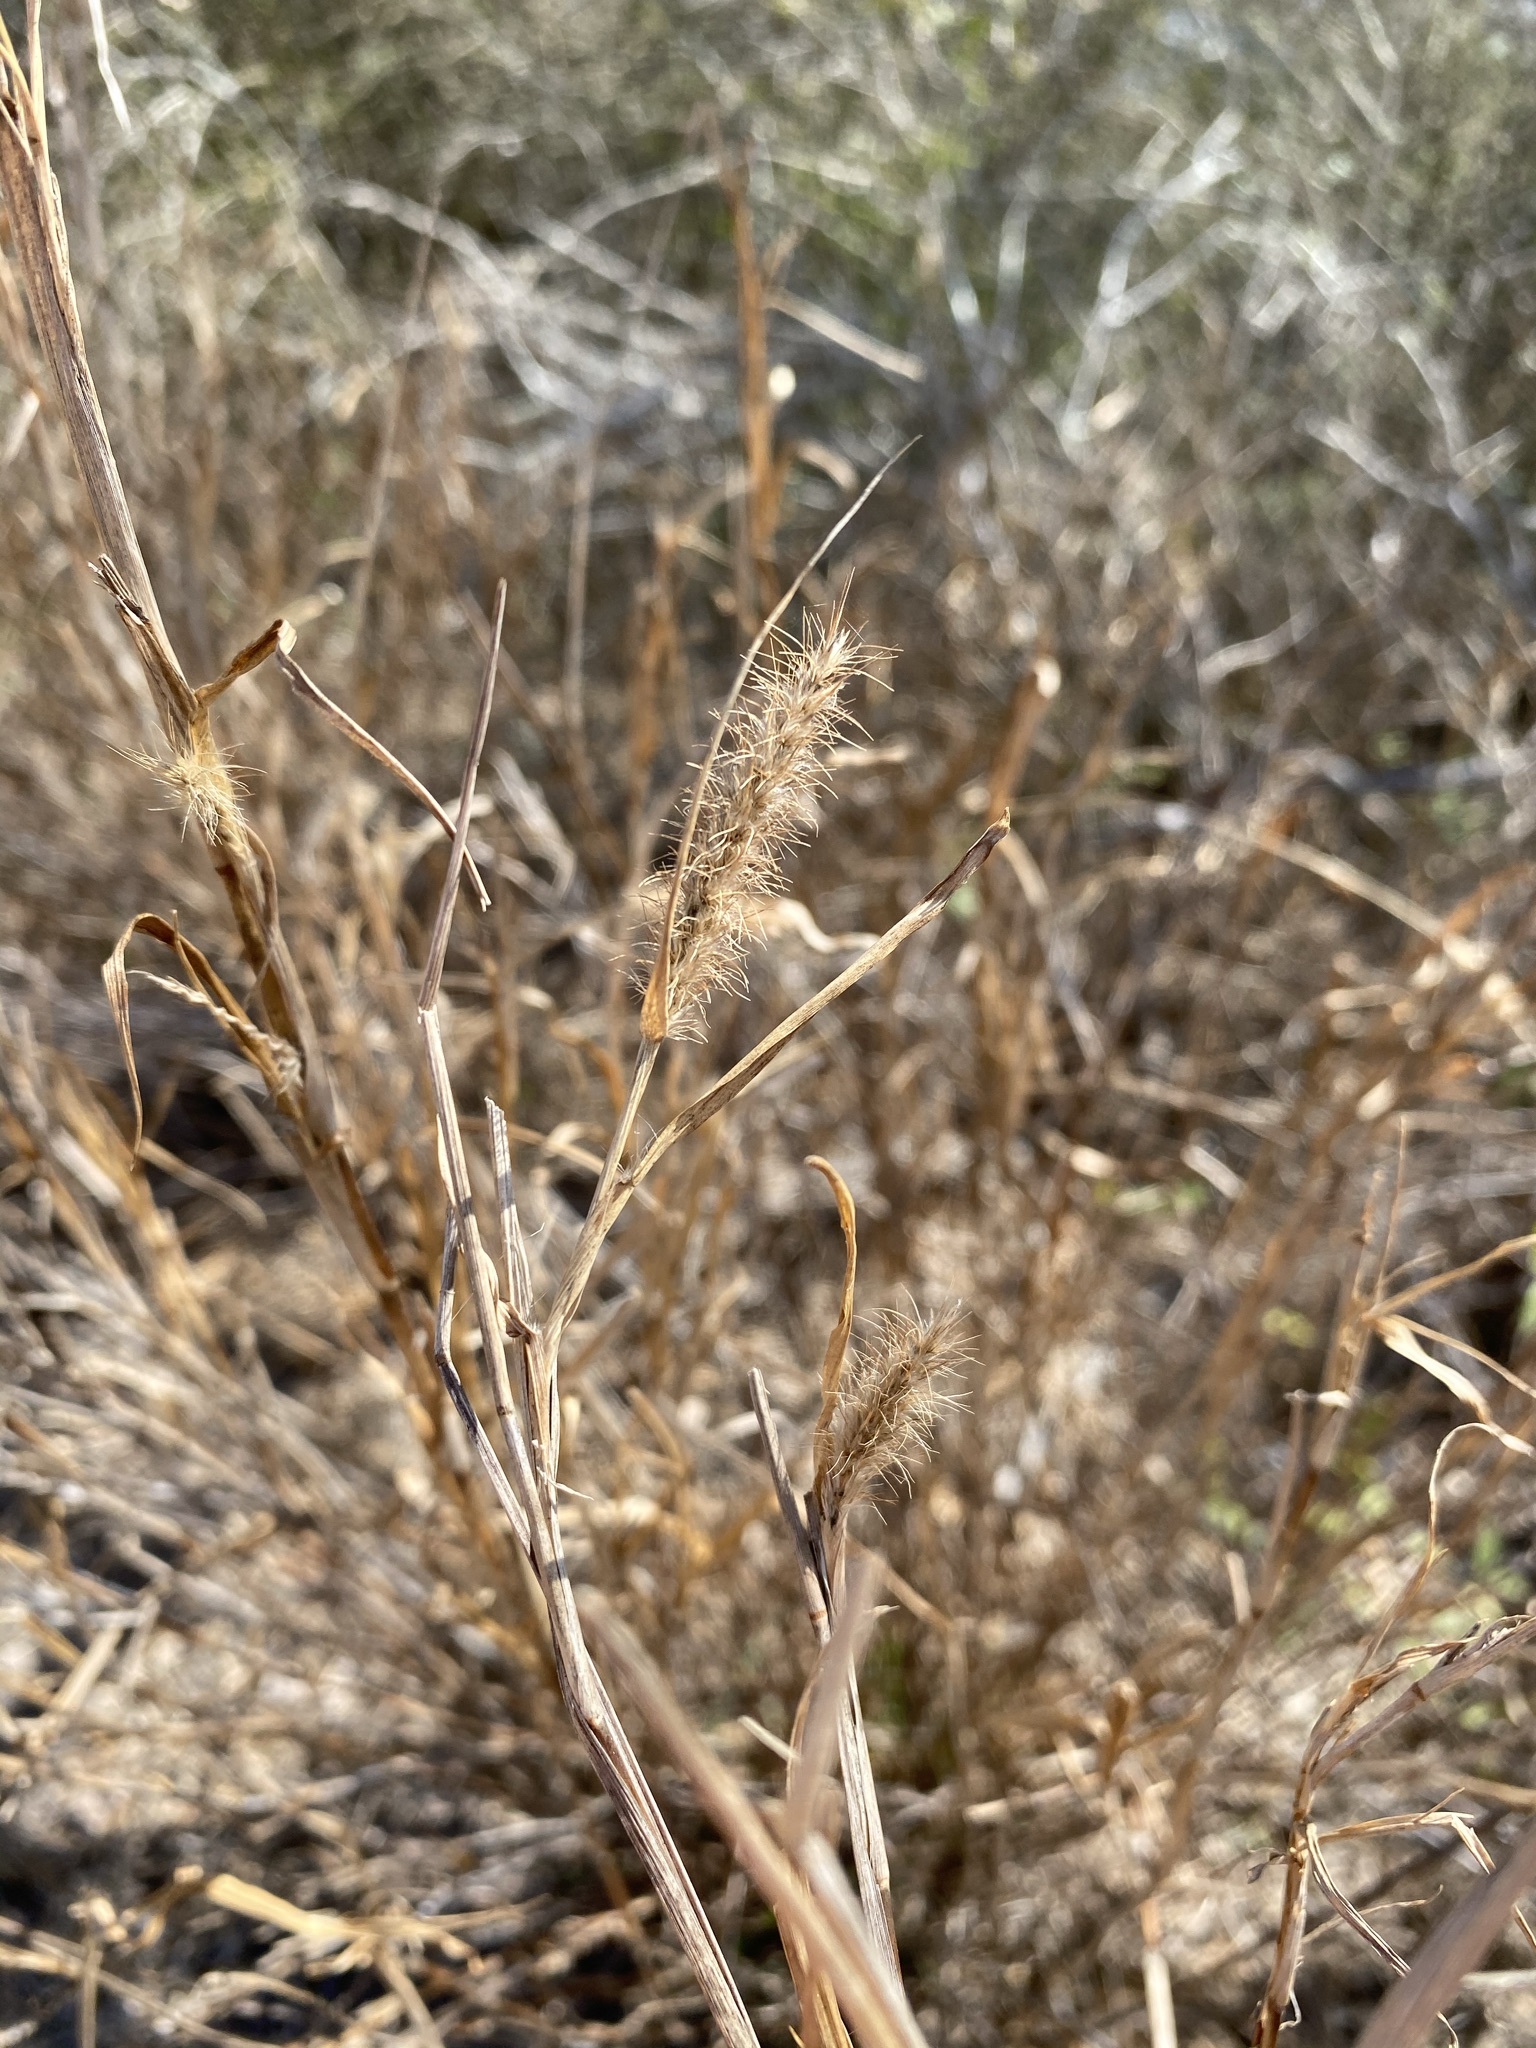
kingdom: Plantae
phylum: Tracheophyta
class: Liliopsida
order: Poales
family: Poaceae
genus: Cenchrus
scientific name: Cenchrus ciliaris
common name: Buffelgrass
